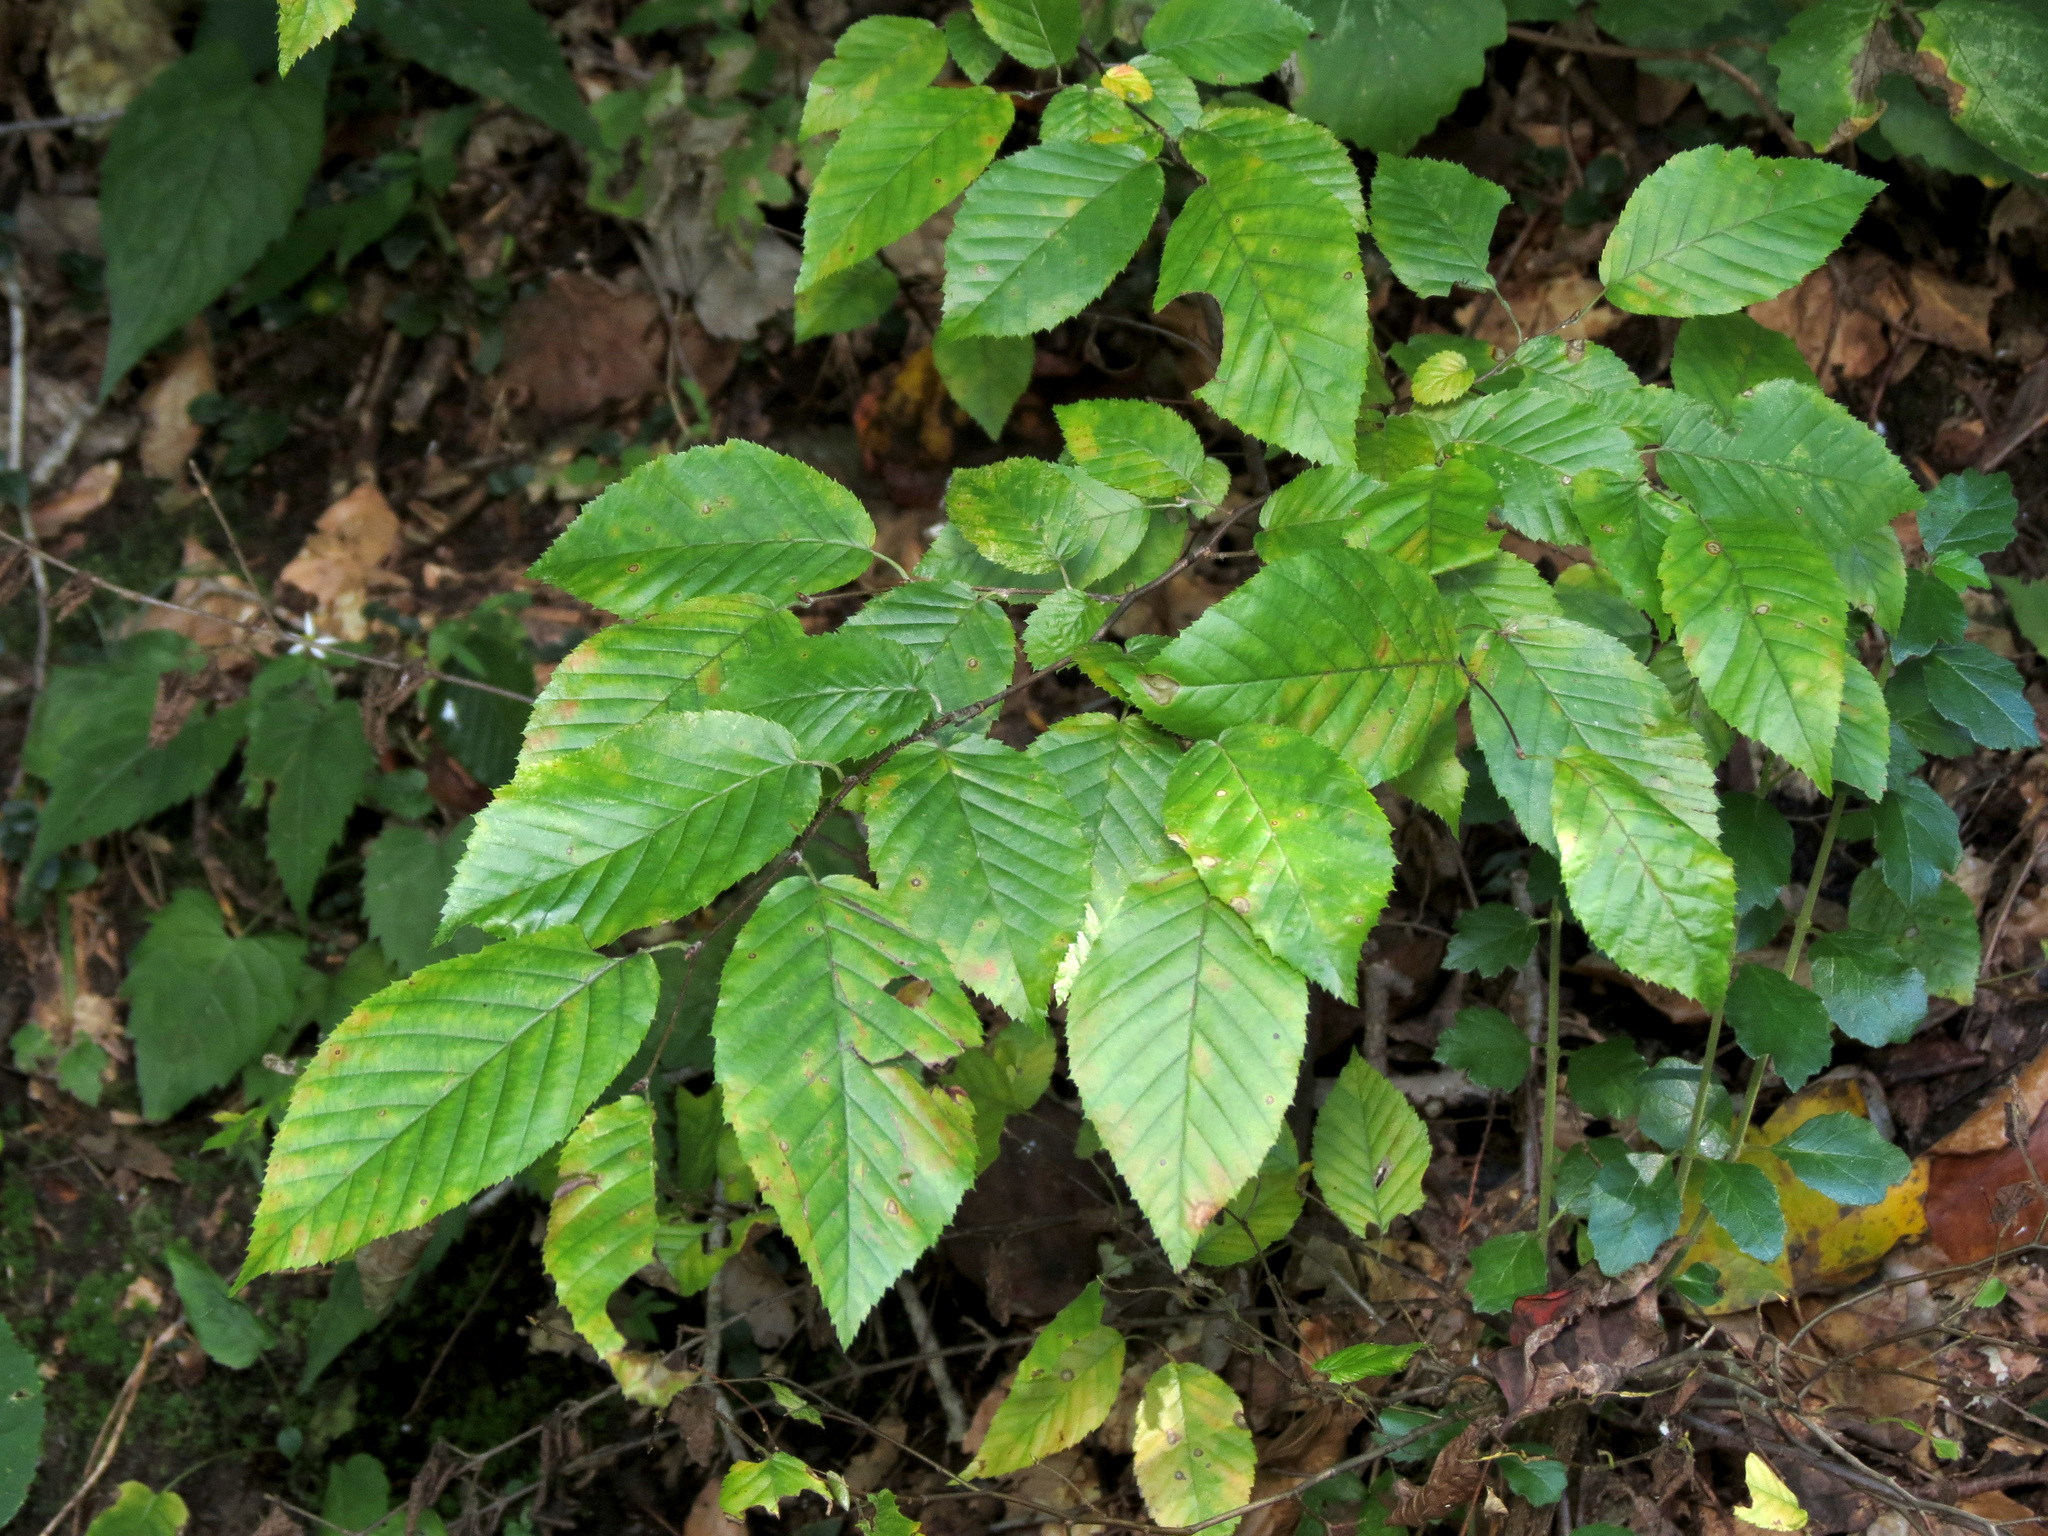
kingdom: Plantae
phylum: Tracheophyta
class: Magnoliopsida
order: Fagales
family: Fagaceae
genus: Fagus
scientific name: Fagus grandifolia
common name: American beech
